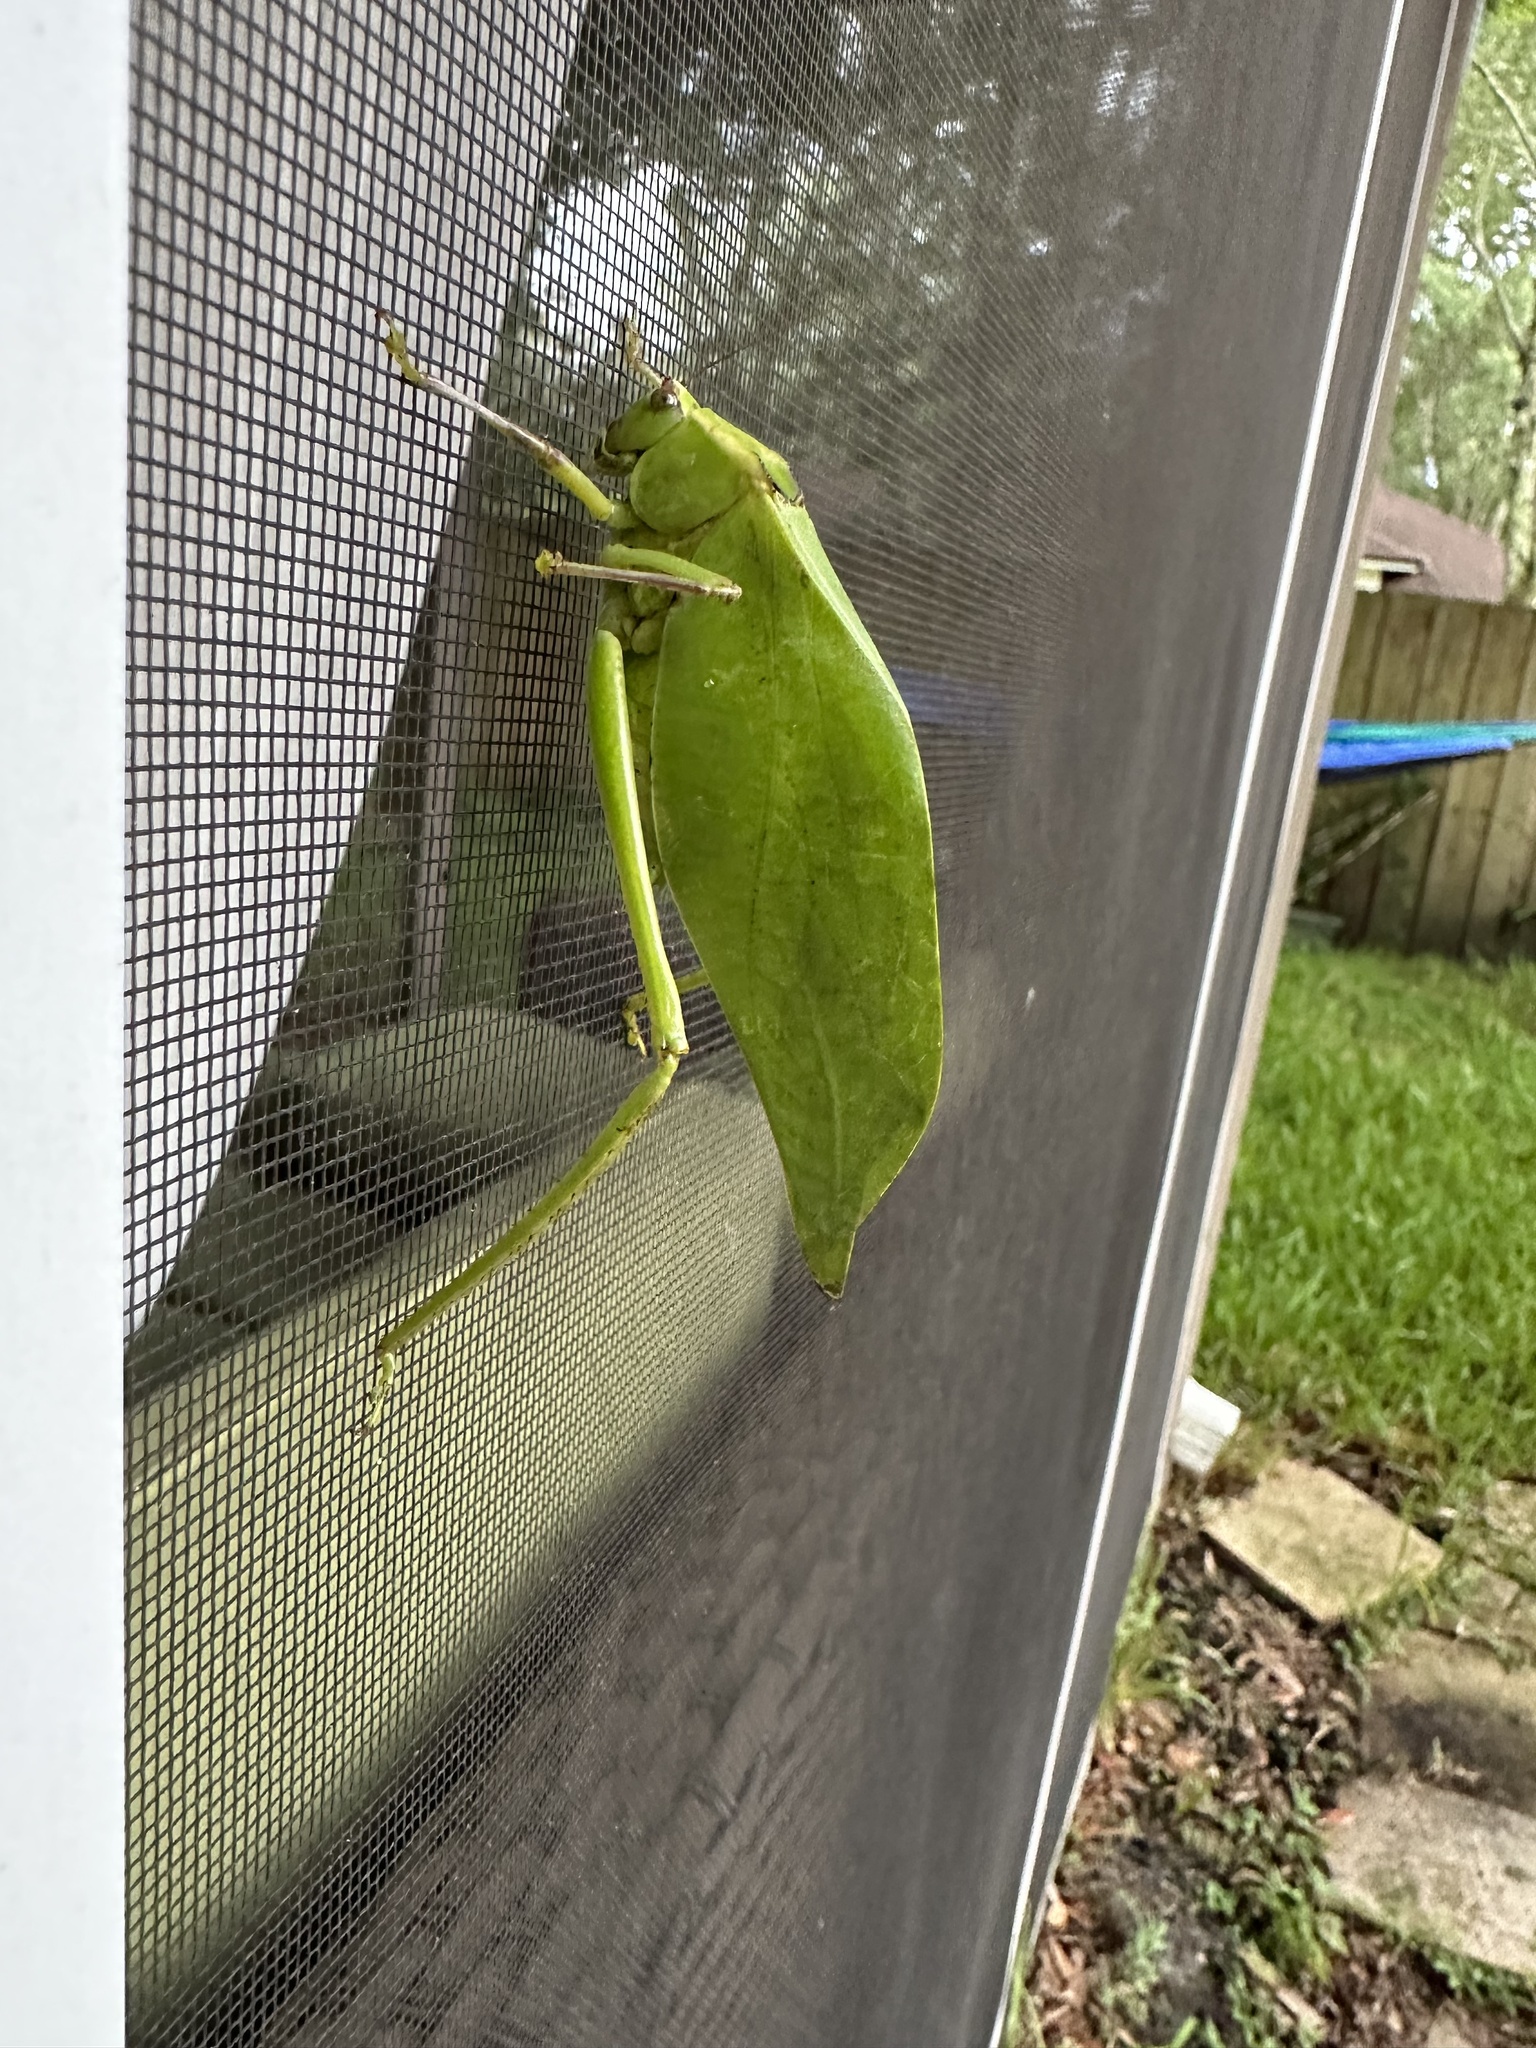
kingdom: Animalia
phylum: Arthropoda
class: Insecta
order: Orthoptera
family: Tettigoniidae
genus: Stilpnochlora
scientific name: Stilpnochlora couloniana
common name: Giant katydid
